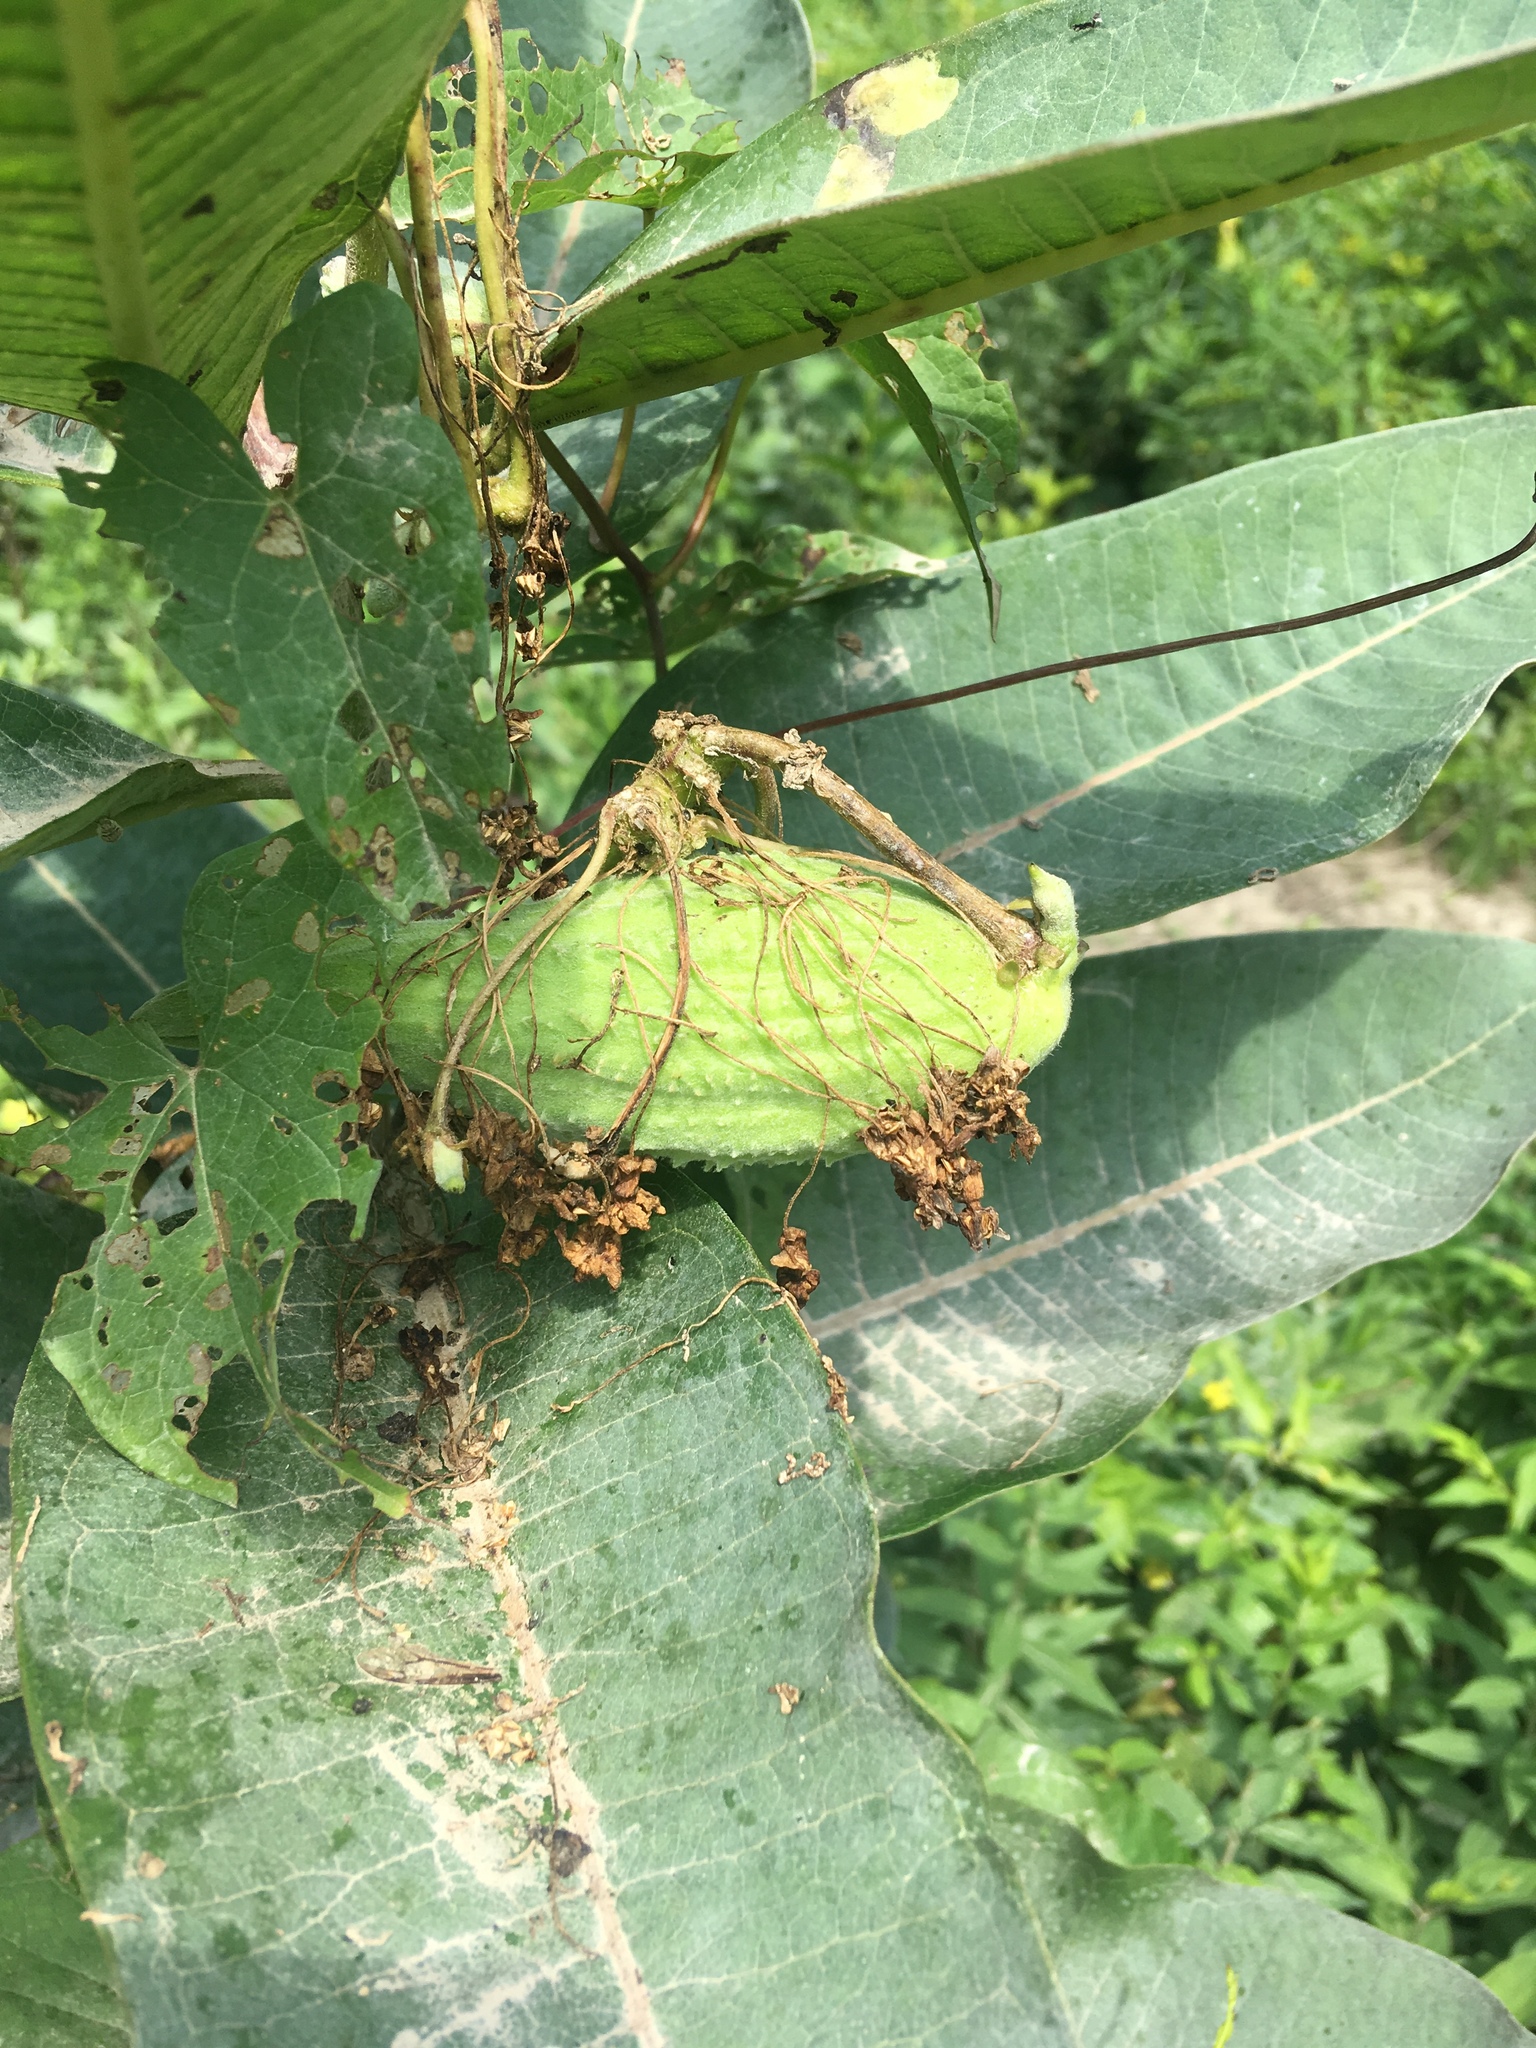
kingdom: Plantae
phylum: Tracheophyta
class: Magnoliopsida
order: Gentianales
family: Apocynaceae
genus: Asclepias
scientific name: Asclepias syriaca
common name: Common milkweed
